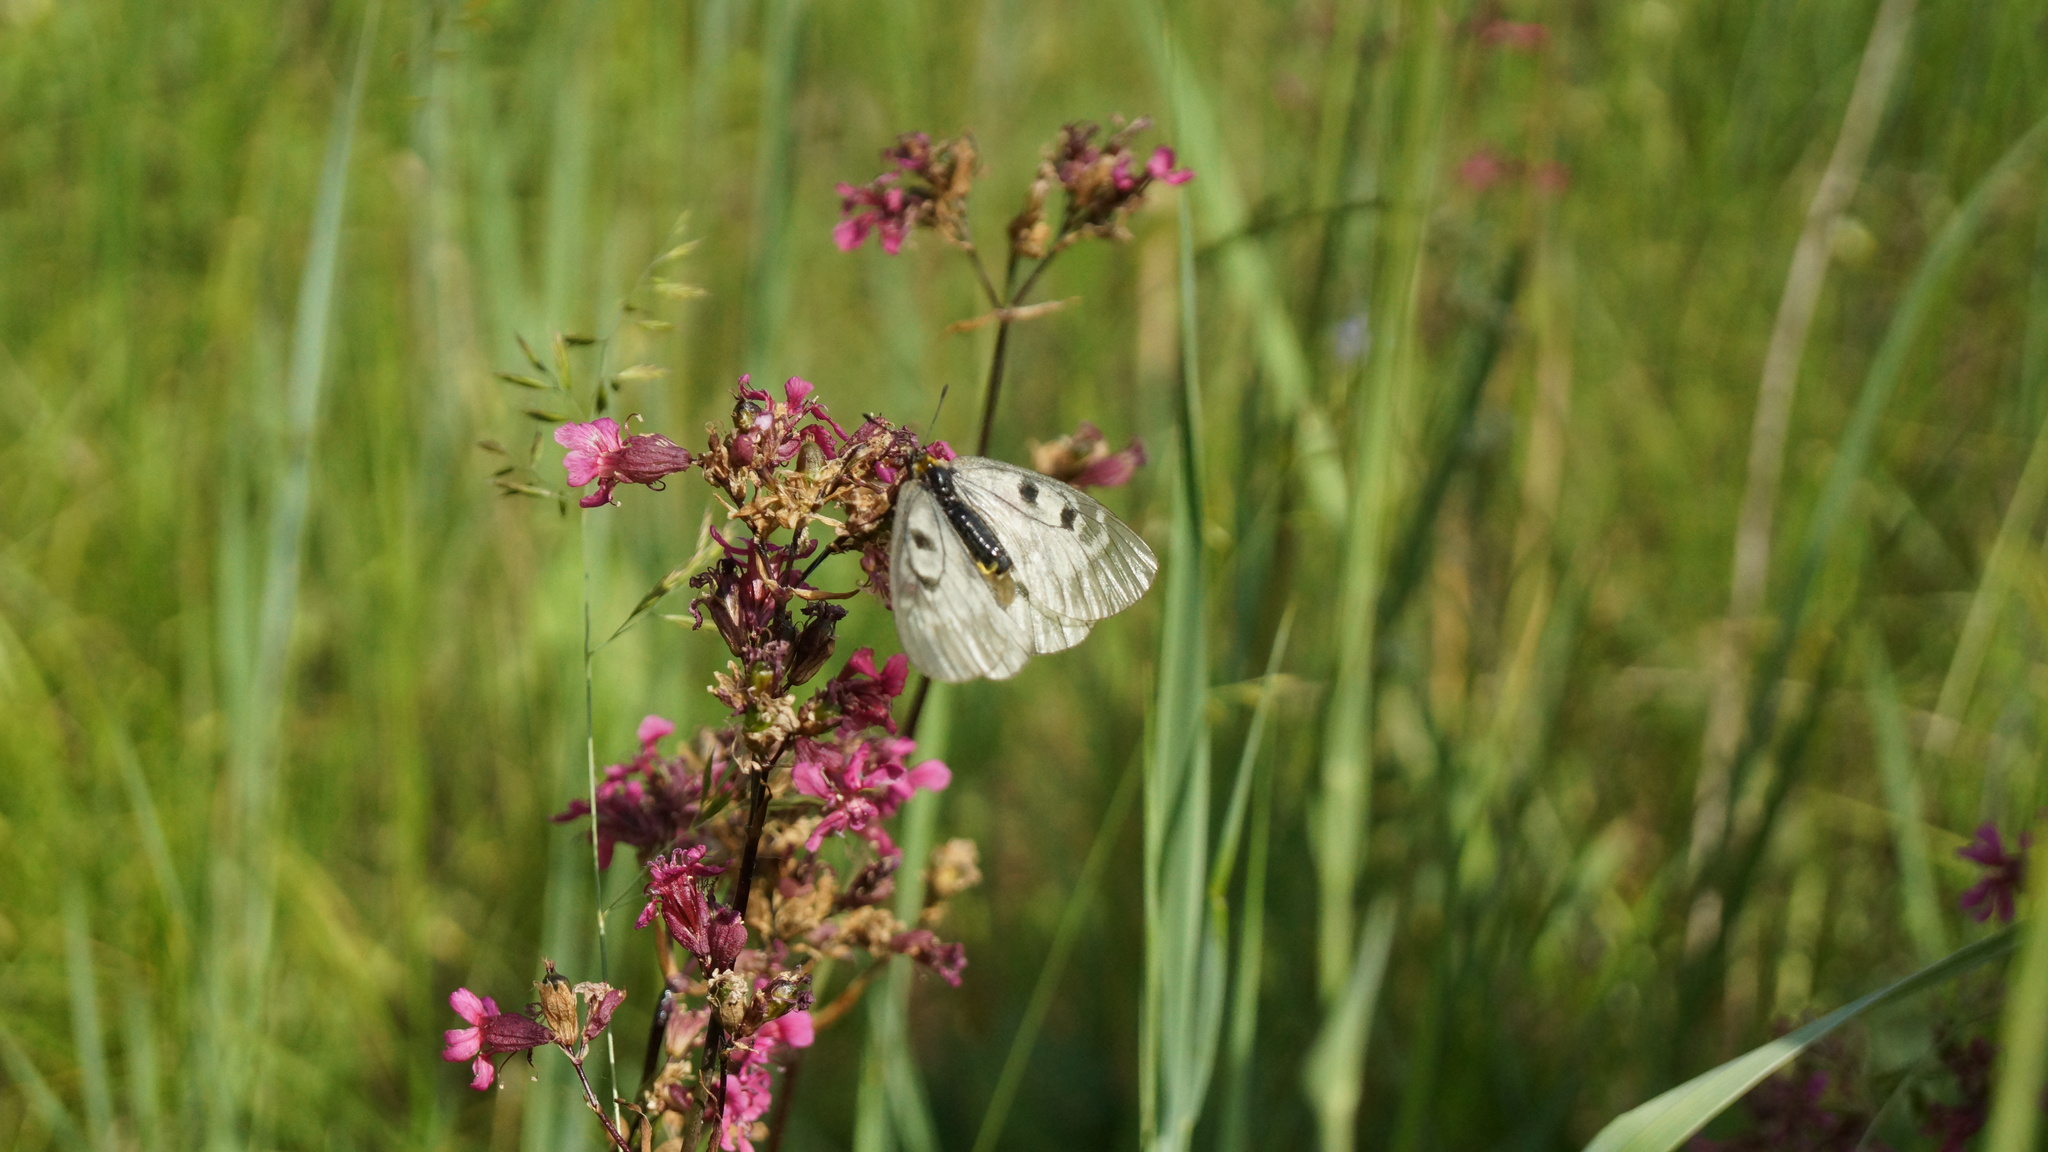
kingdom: Animalia
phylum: Arthropoda
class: Insecta
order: Lepidoptera
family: Papilionidae
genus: Parnassius
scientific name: Parnassius mnemosyne
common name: Clouded apollo
